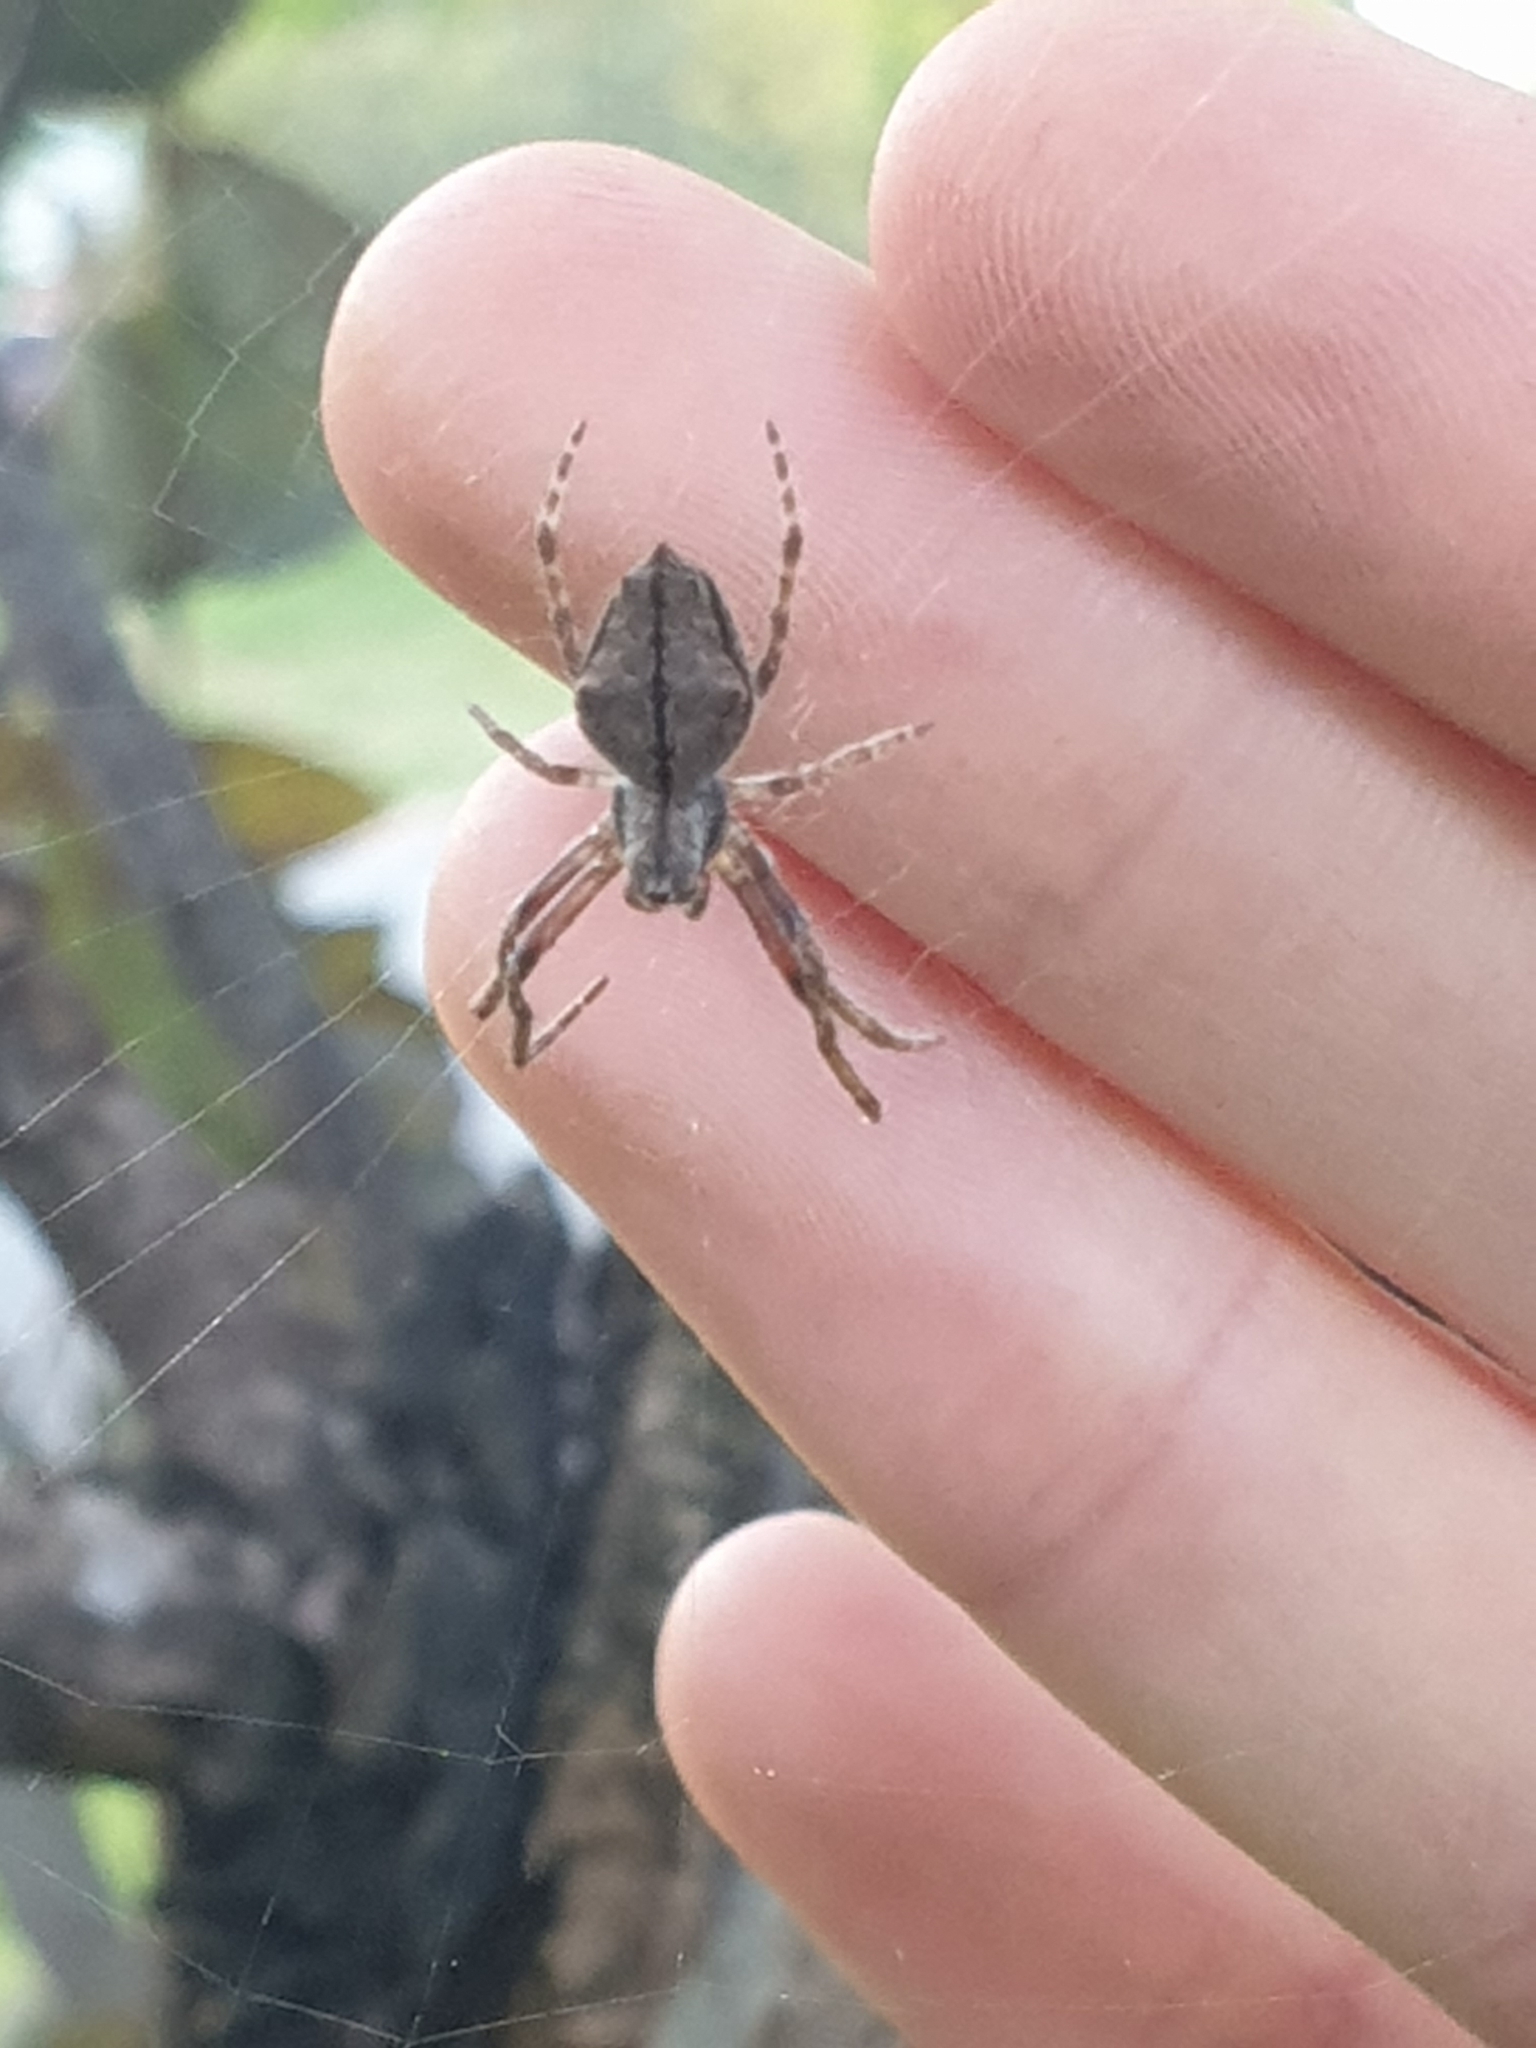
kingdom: Animalia
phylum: Arthropoda
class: Arachnida
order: Araneae
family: Araneidae
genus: Eriophora
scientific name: Eriophora pustulosa
